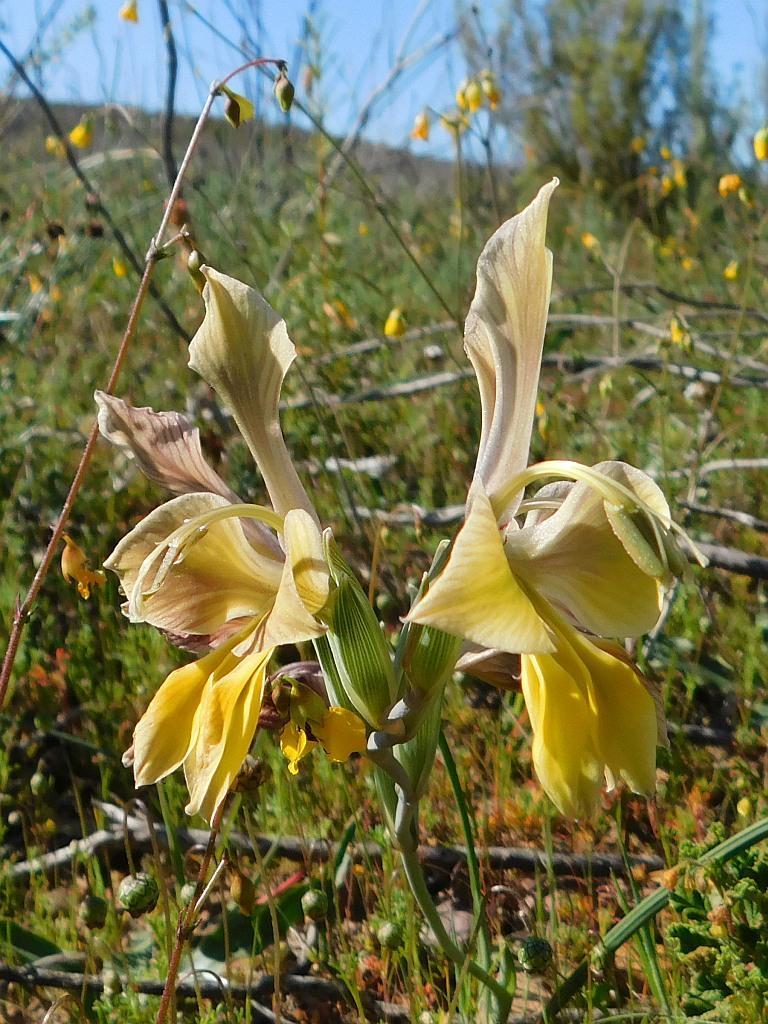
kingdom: Plantae
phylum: Tracheophyta
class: Liliopsida
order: Asparagales
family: Iridaceae
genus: Gladiolus
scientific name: Gladiolus virescens
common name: Yellow kalkoentjie
